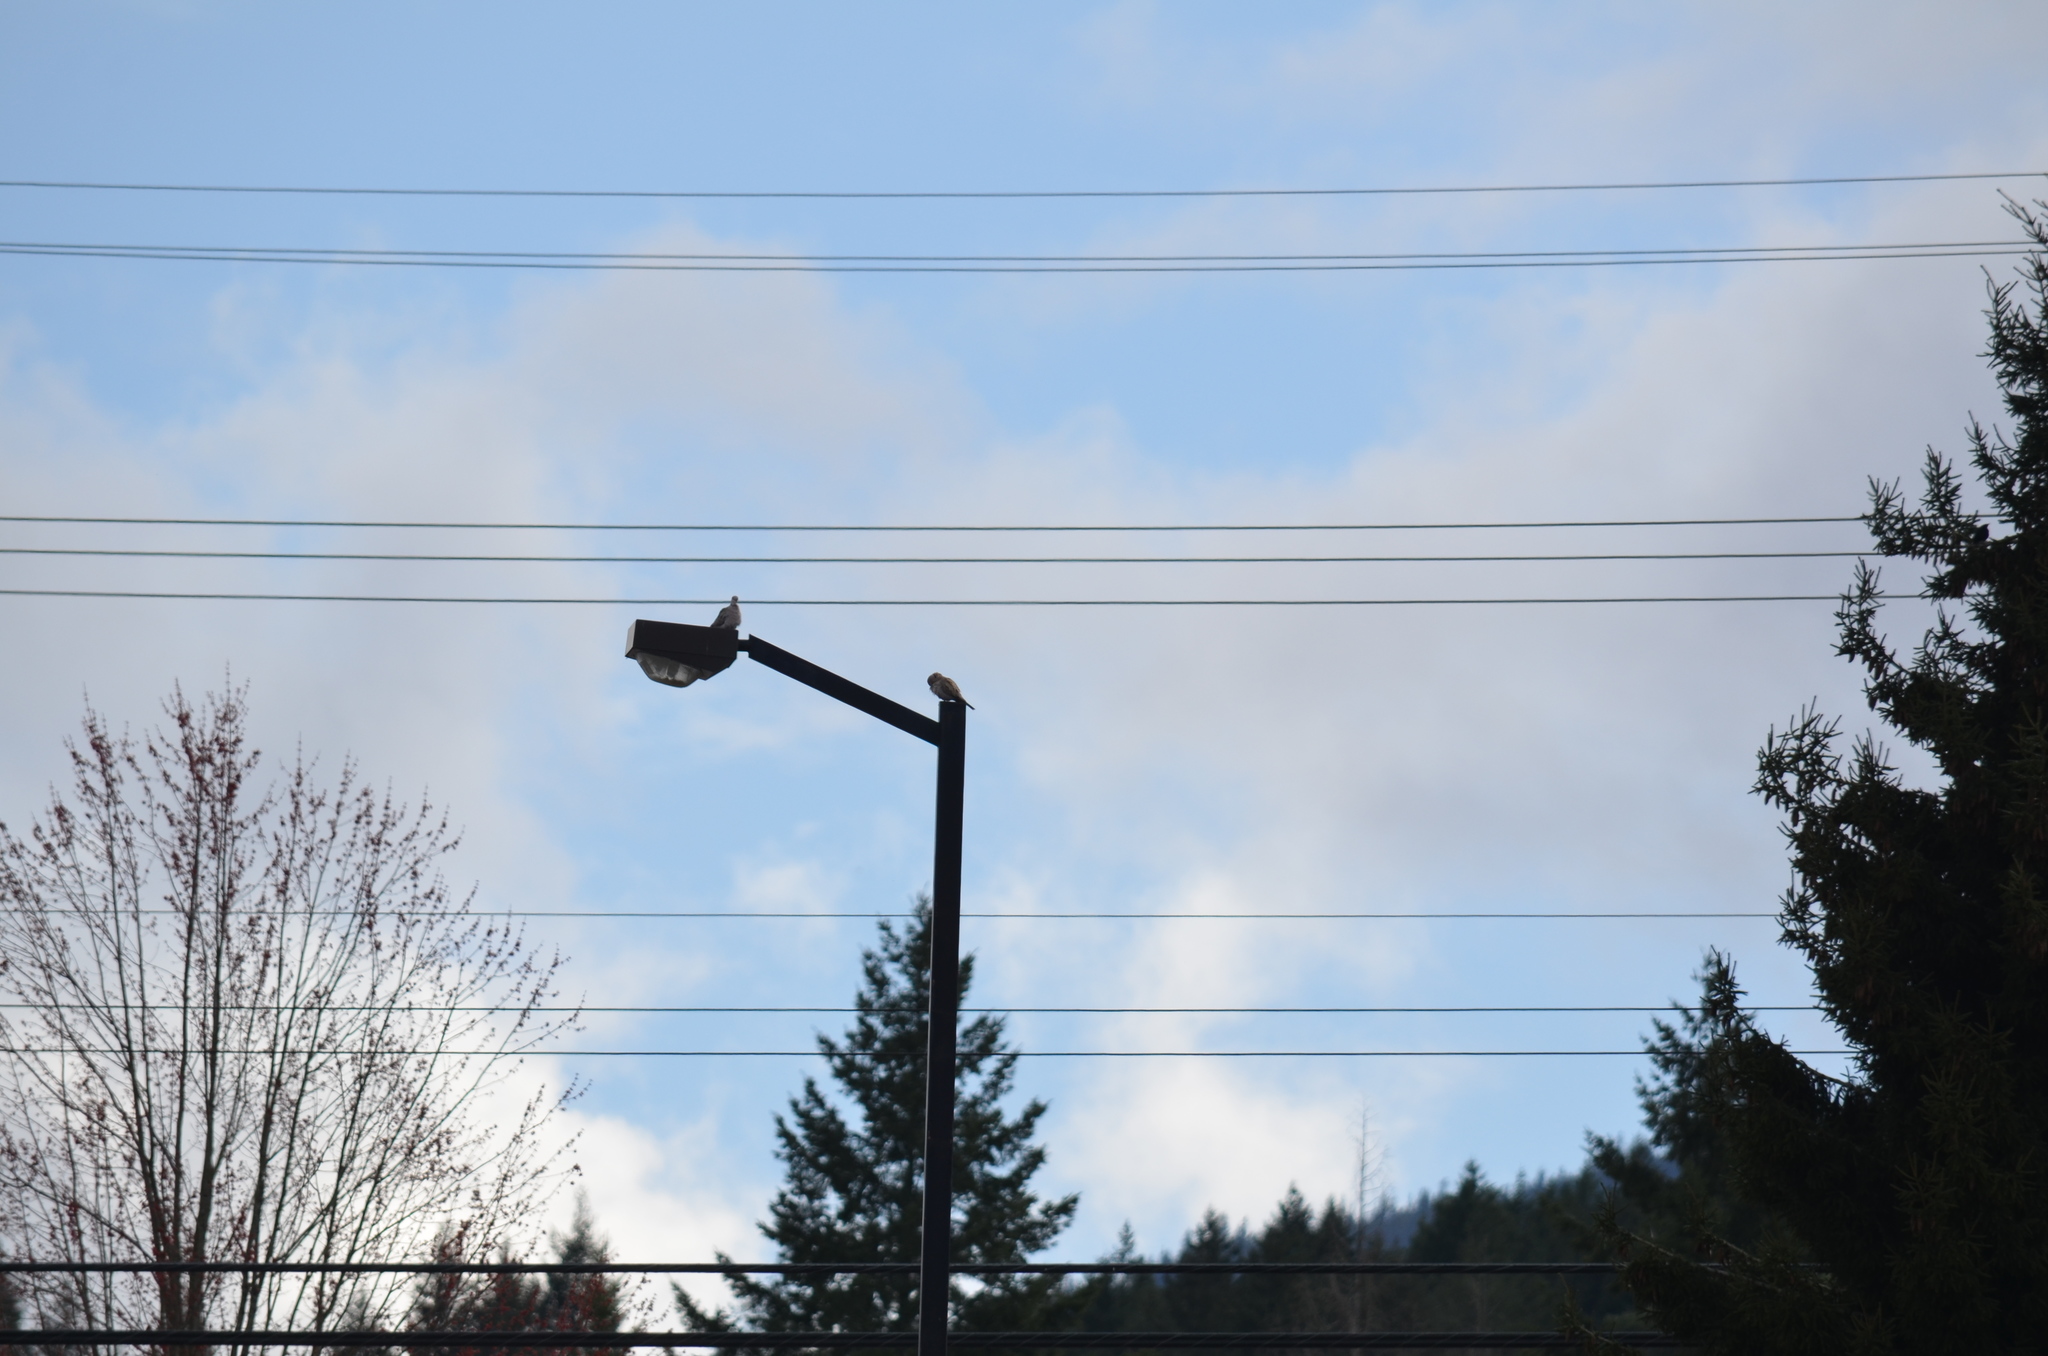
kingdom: Animalia
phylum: Chordata
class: Aves
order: Columbiformes
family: Columbidae
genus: Streptopelia
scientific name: Streptopelia decaocto
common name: Eurasian collared dove
